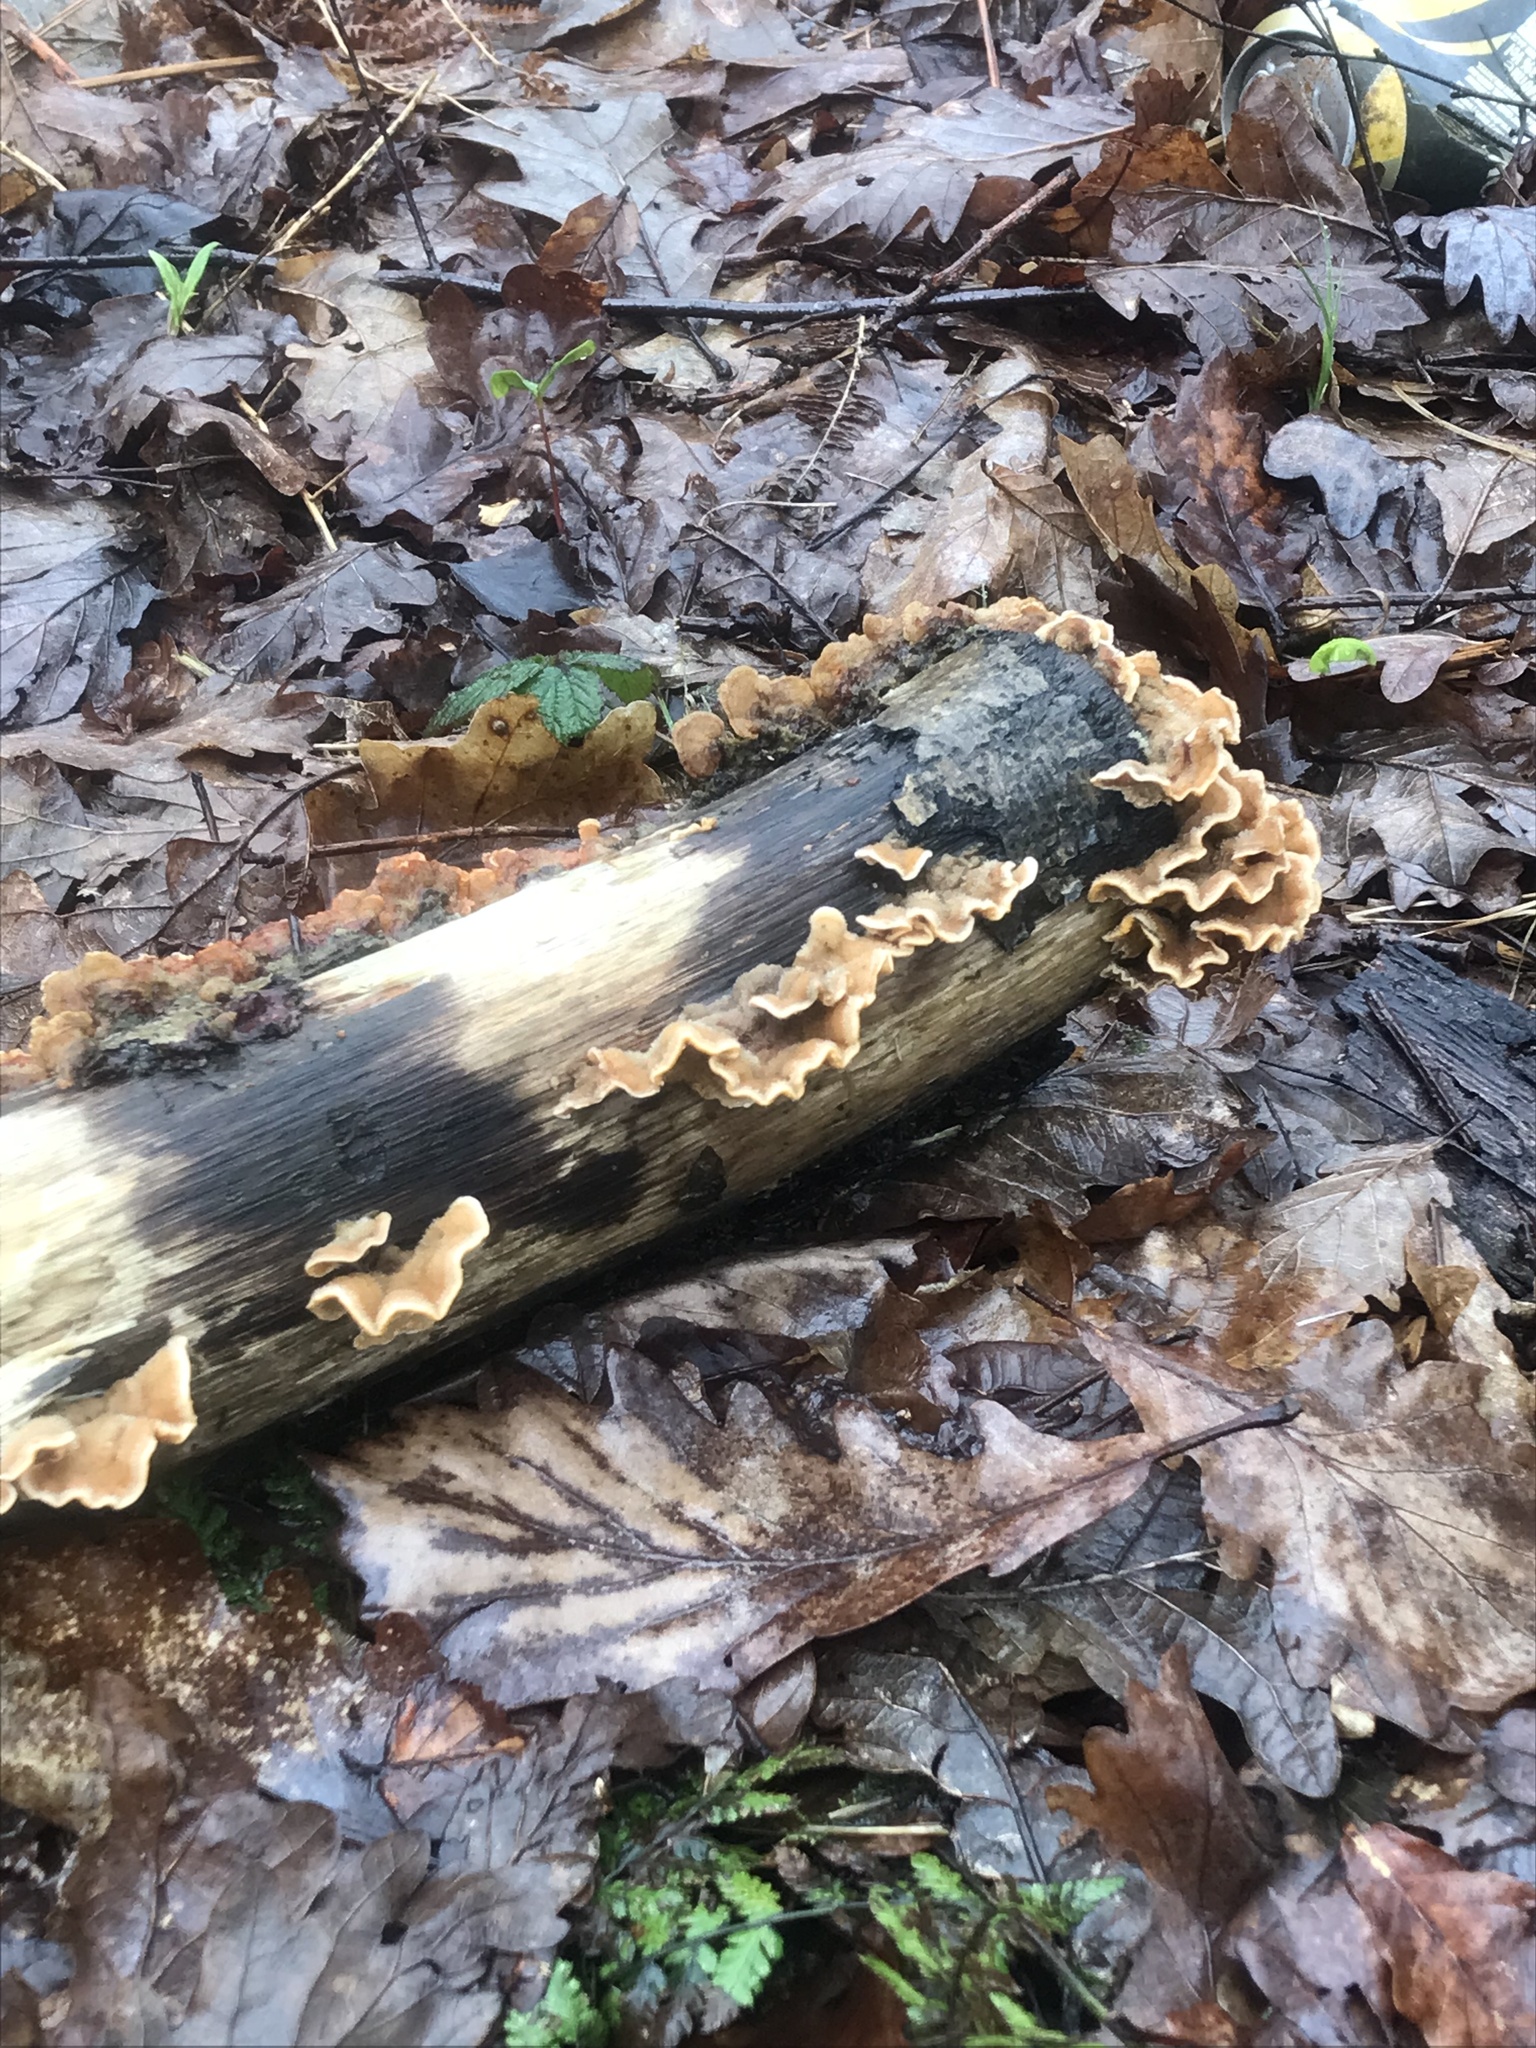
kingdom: Fungi
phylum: Basidiomycota
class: Agaricomycetes
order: Russulales
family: Stereaceae
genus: Stereum
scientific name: Stereum hirsutum
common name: Hairy curtain crust
